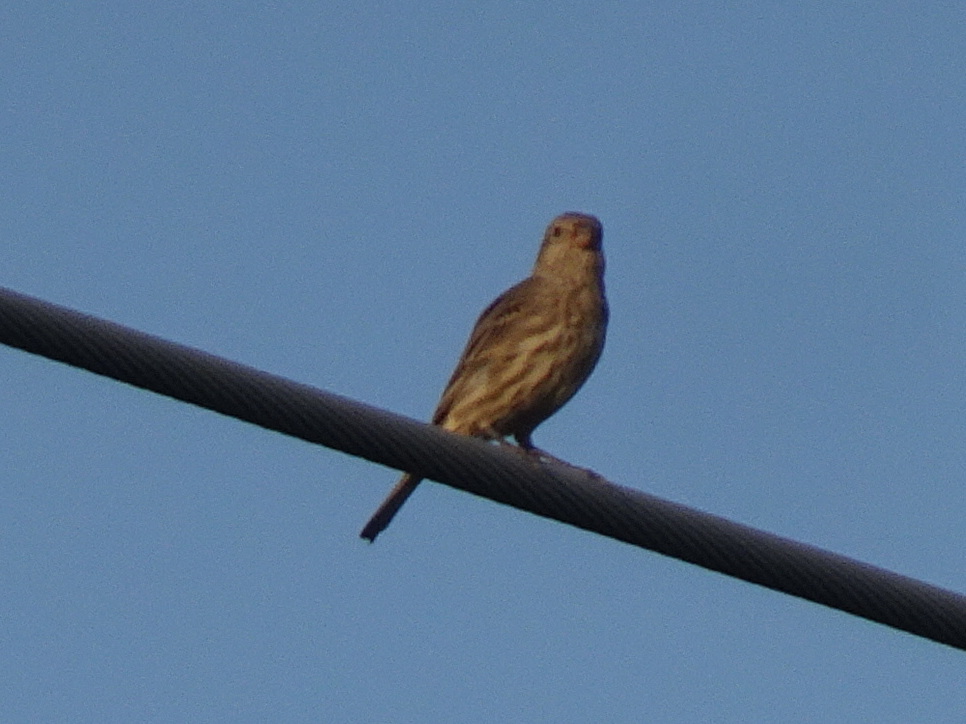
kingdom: Animalia
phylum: Chordata
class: Aves
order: Passeriformes
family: Fringillidae
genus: Haemorhous
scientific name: Haemorhous mexicanus
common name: House finch
